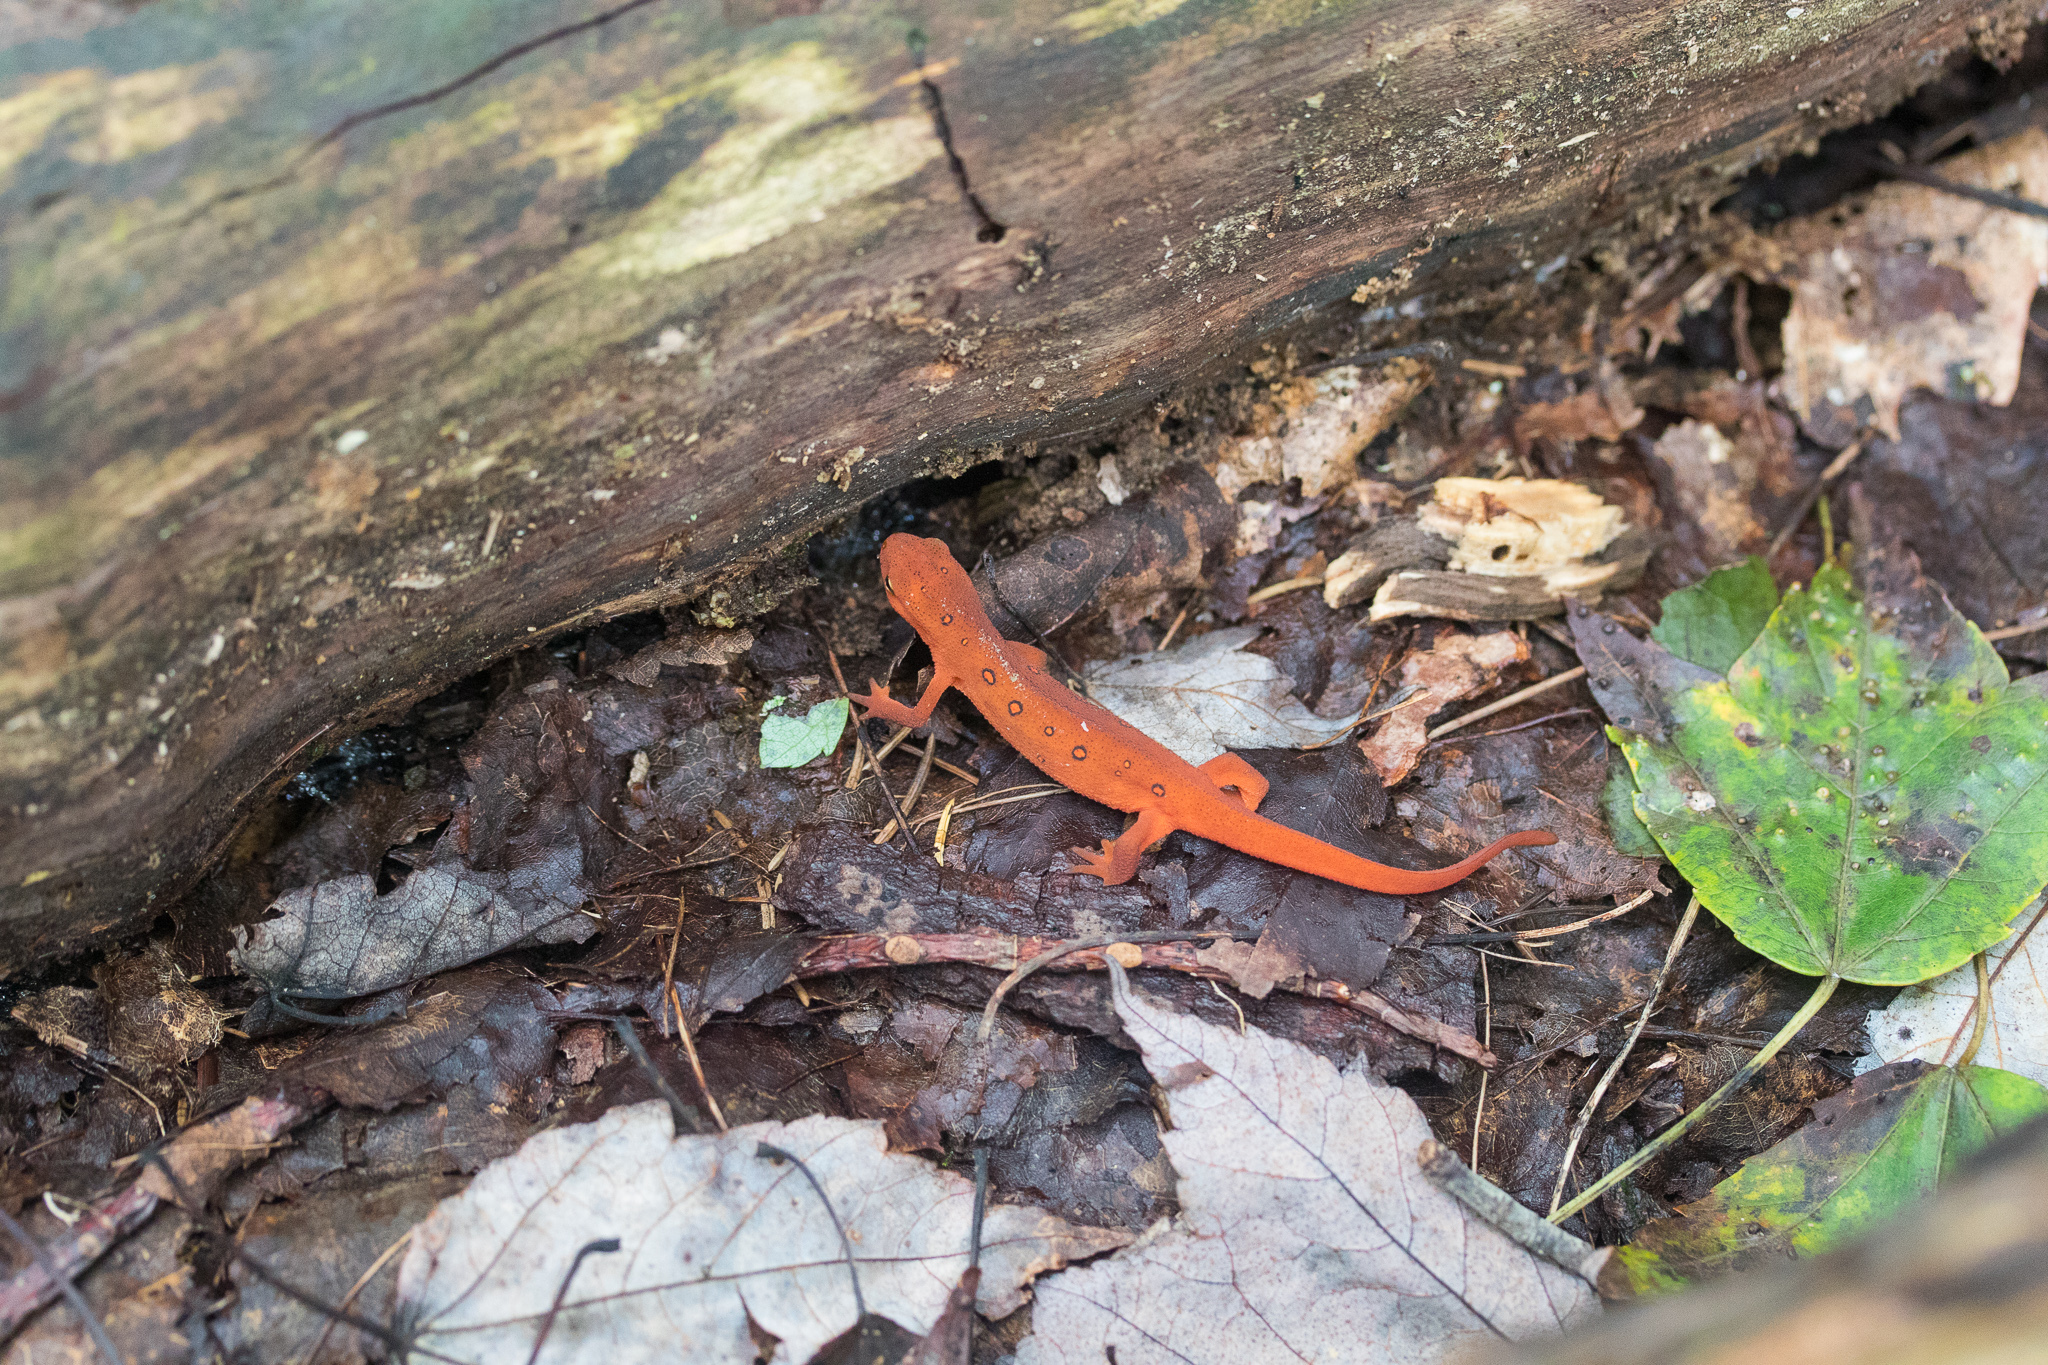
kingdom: Animalia
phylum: Chordata
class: Amphibia
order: Caudata
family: Salamandridae
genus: Notophthalmus
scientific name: Notophthalmus viridescens
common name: Eastern newt
